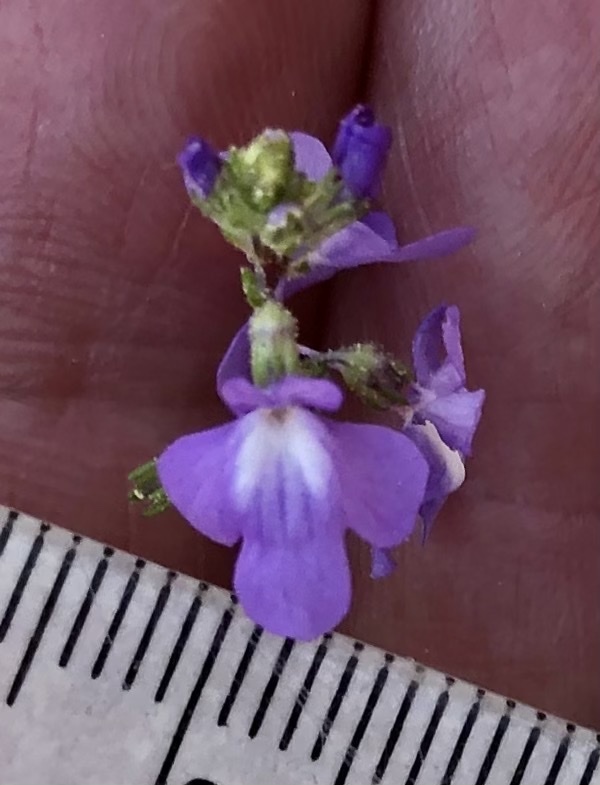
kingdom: Plantae
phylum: Tracheophyta
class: Magnoliopsida
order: Lamiales
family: Plantaginaceae
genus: Nuttallanthus
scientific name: Nuttallanthus canadensis
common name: Blue toadflax
